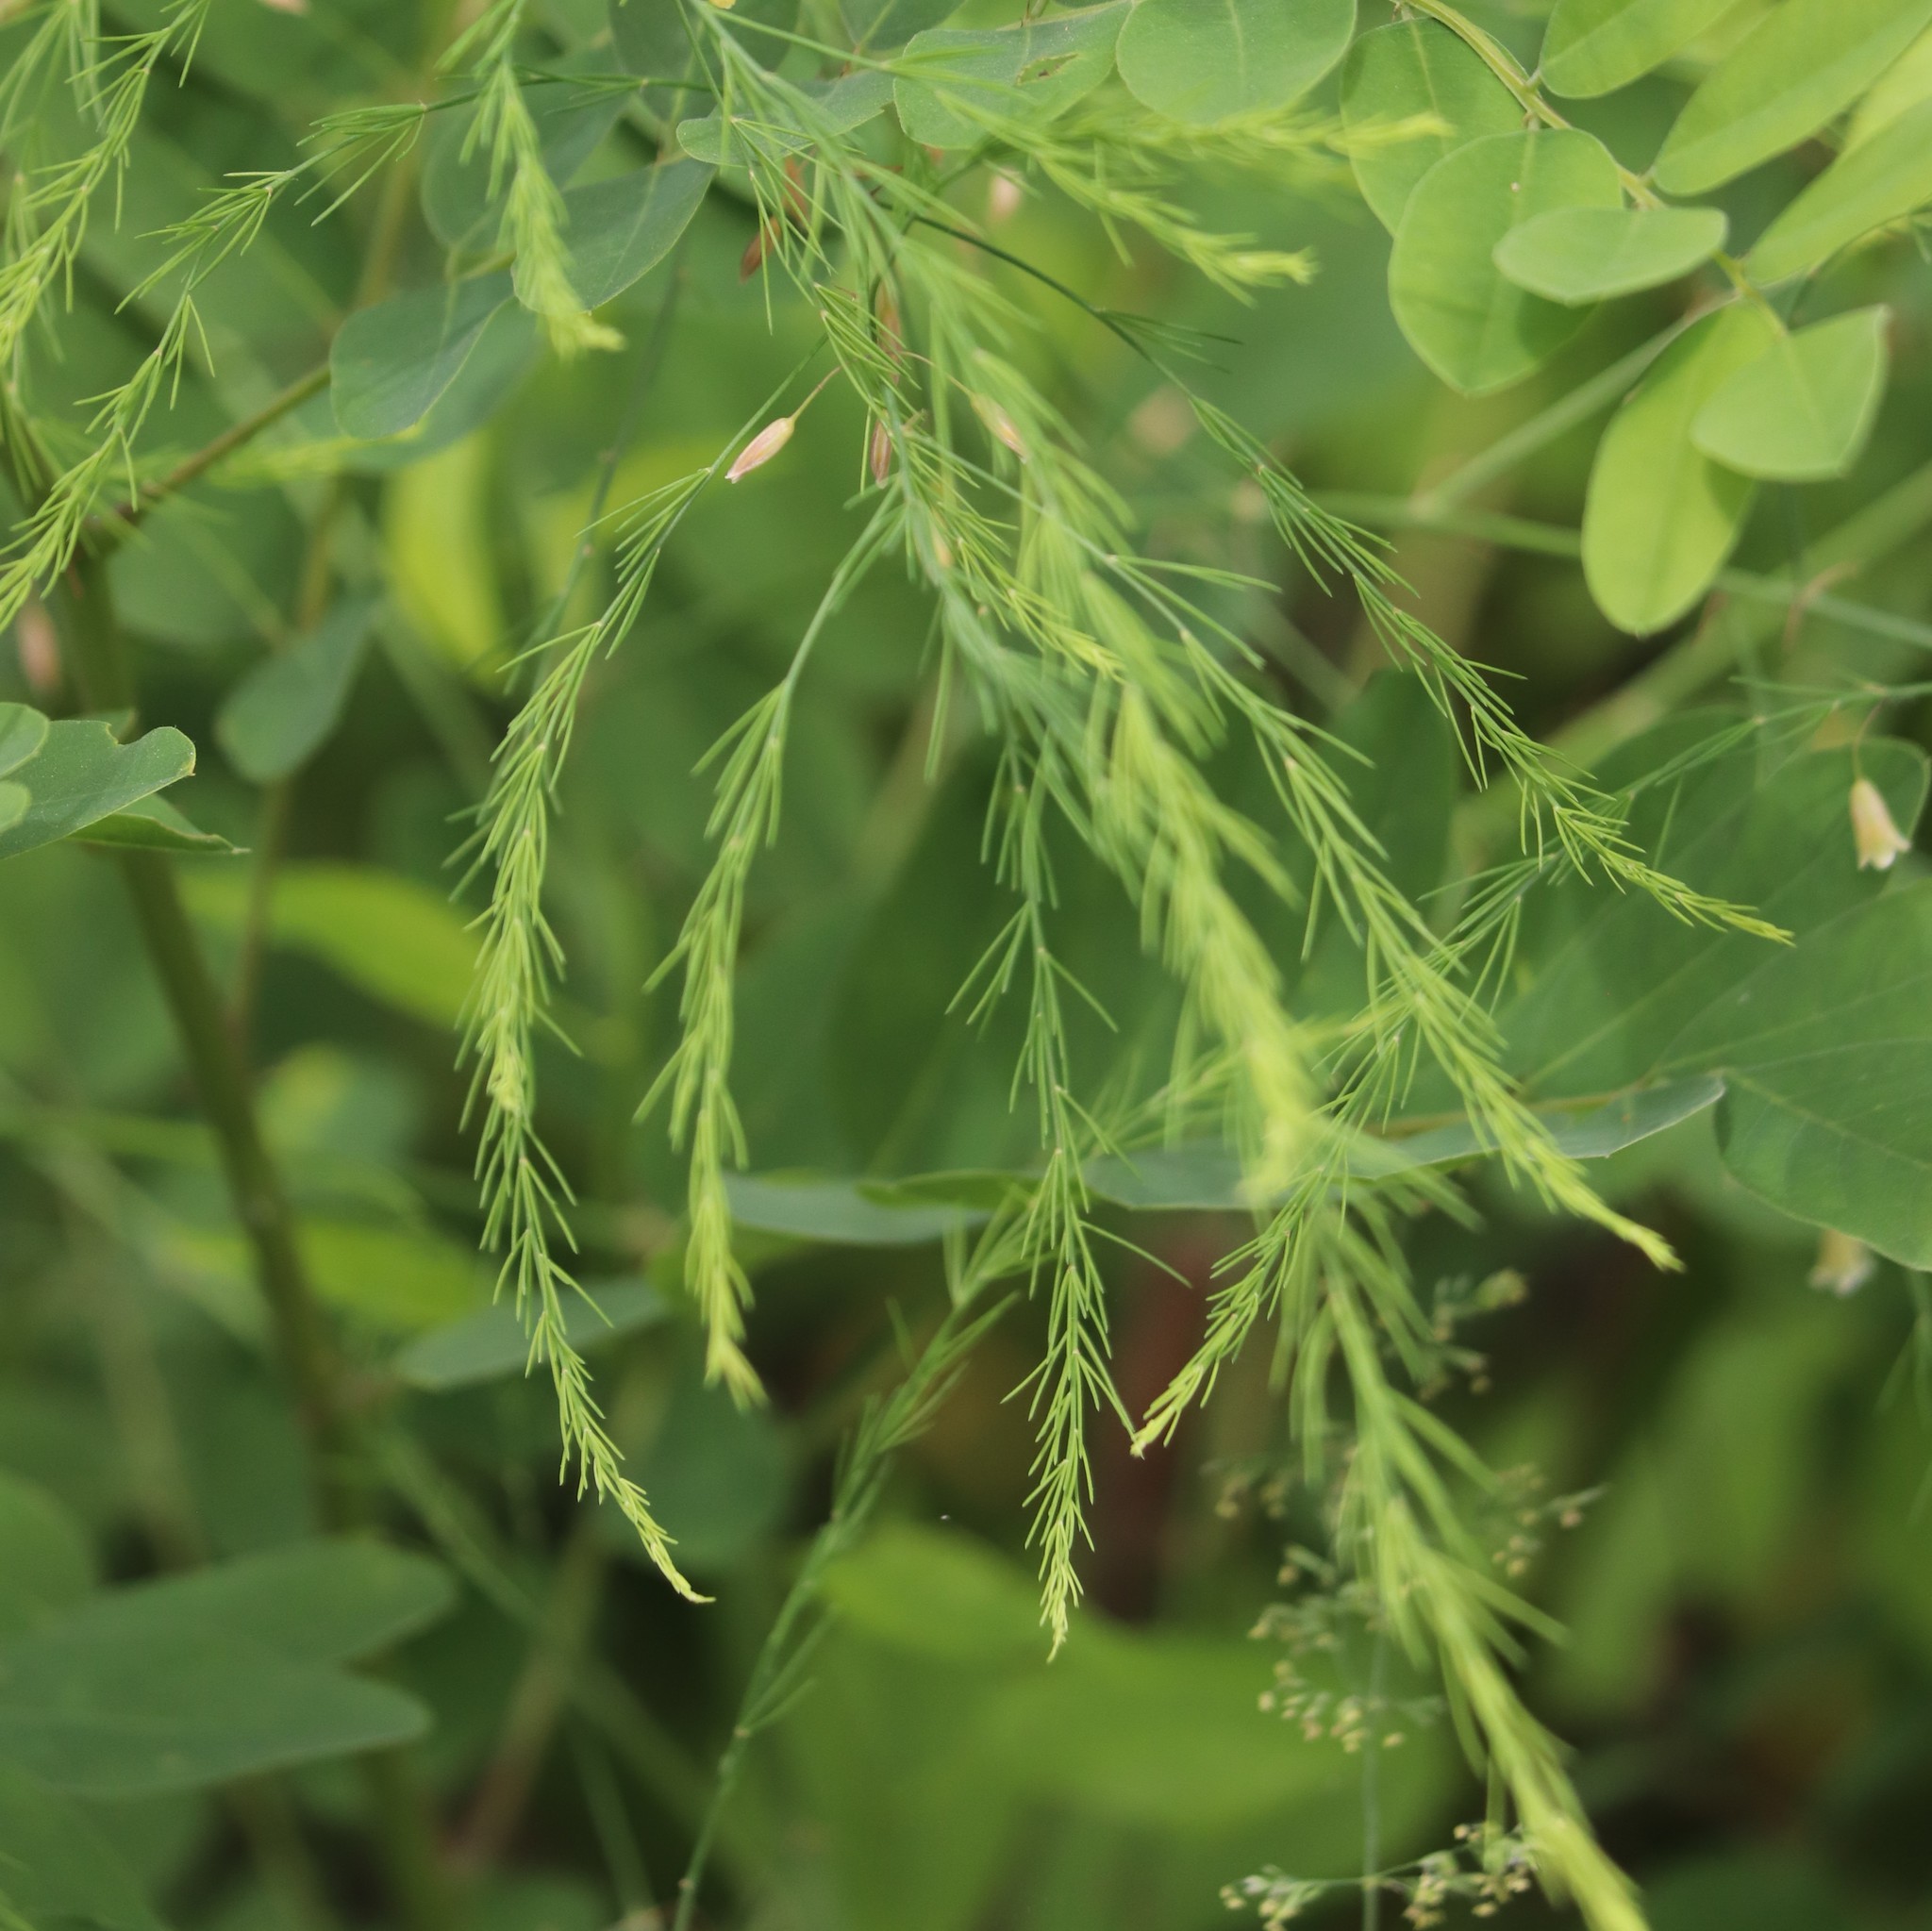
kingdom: Plantae
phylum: Tracheophyta
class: Liliopsida
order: Asparagales
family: Asparagaceae
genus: Asparagus
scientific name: Asparagus officinalis
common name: Garden asparagus
